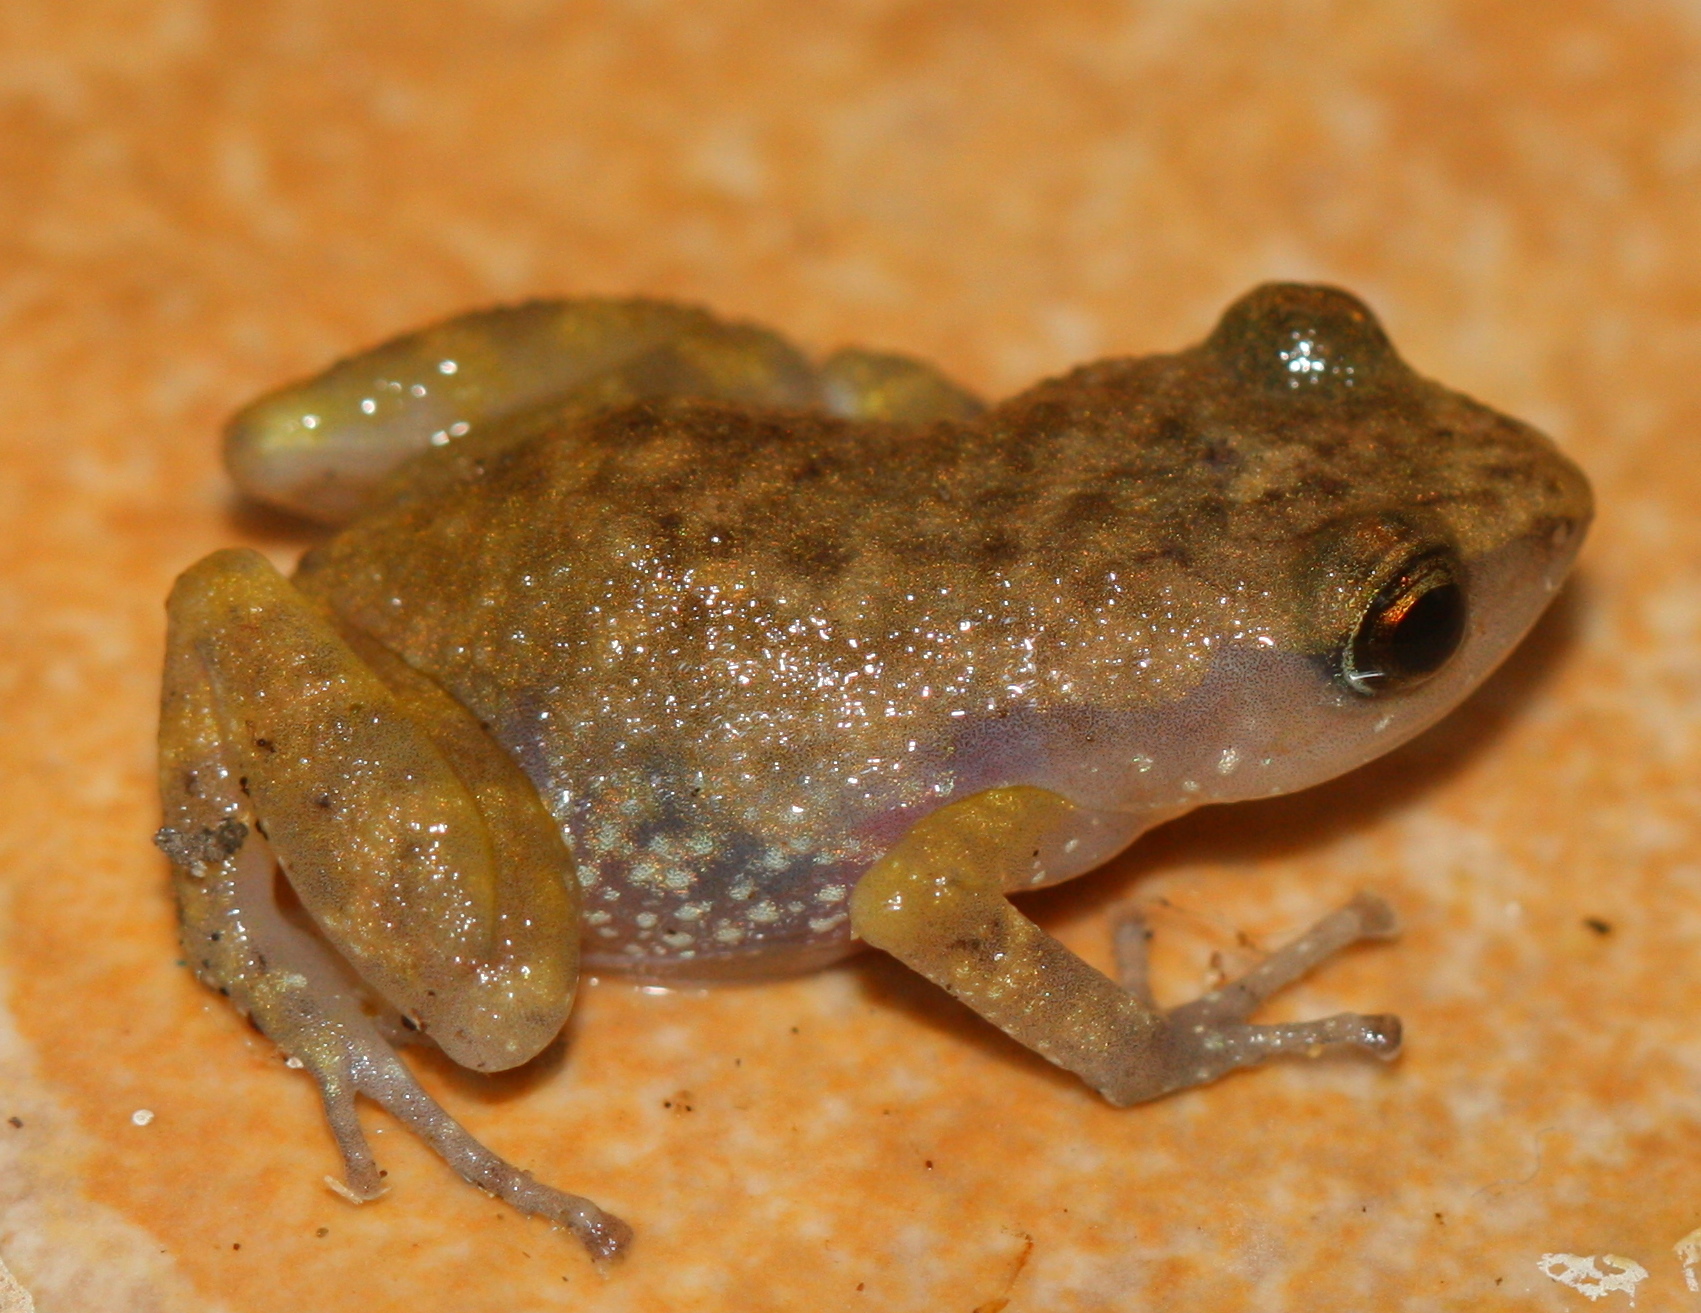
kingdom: Animalia
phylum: Chordata
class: Amphibia
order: Anura
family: Eleutherodactylidae
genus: Eleutherodactylus
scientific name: Eleutherodactylus pallidus
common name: Pale peeping frog
